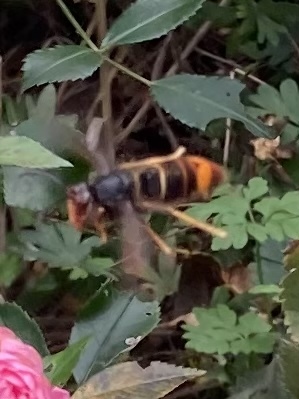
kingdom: Animalia
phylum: Arthropoda
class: Insecta
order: Hymenoptera
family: Vespidae
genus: Vespa
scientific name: Vespa velutina
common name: Asian hornet
